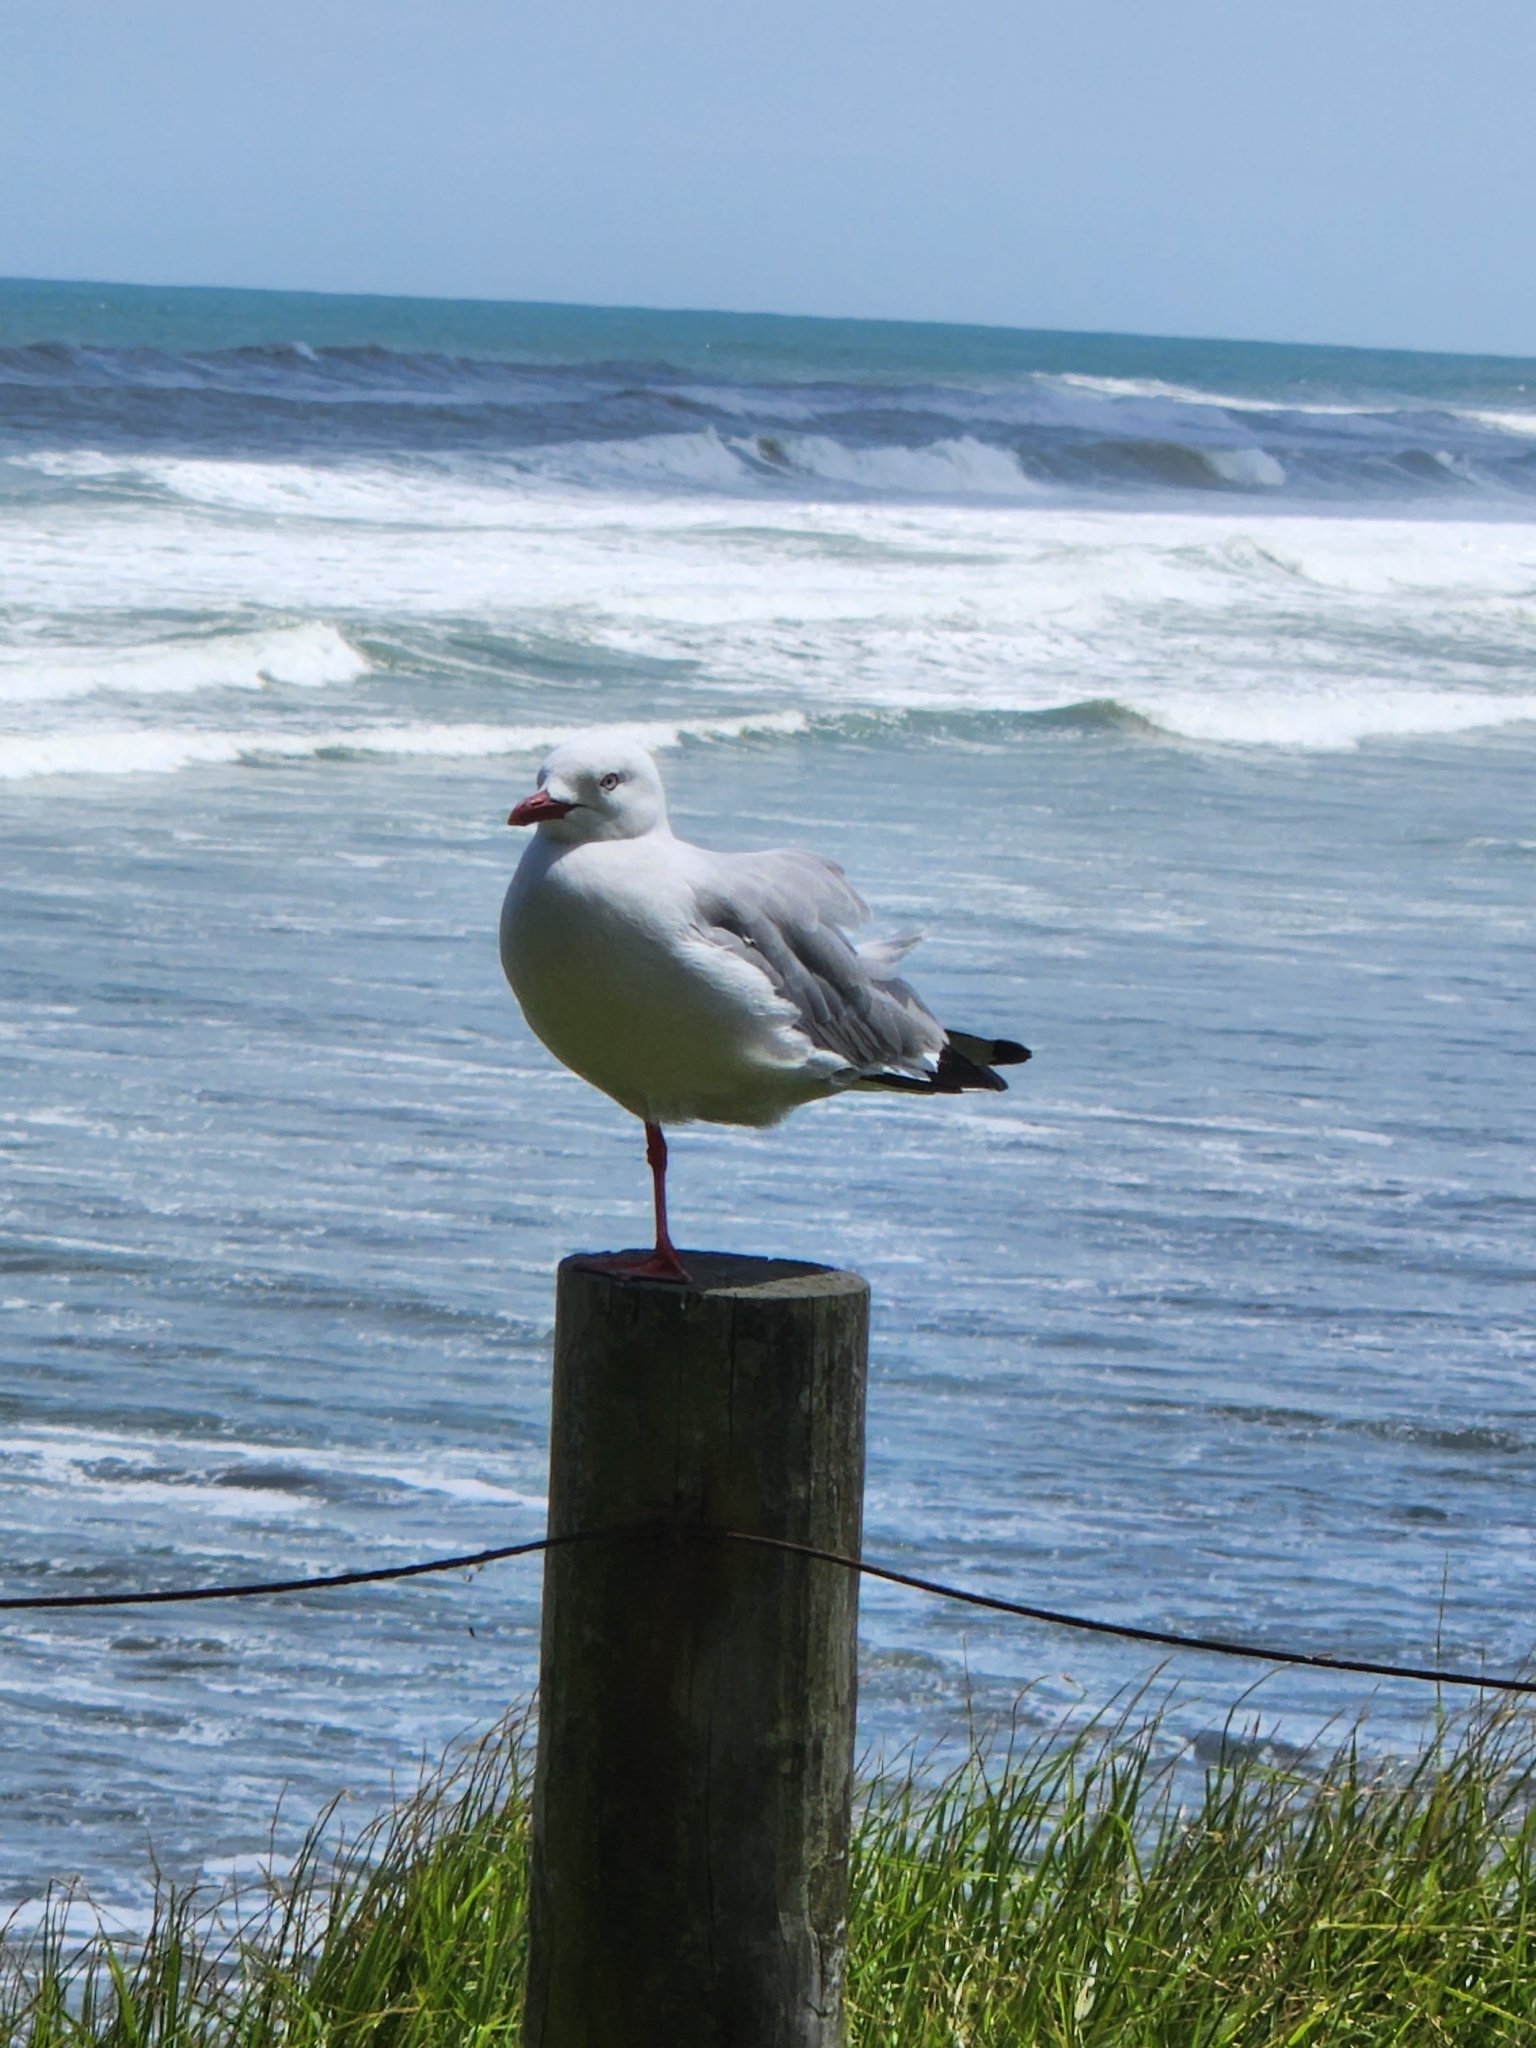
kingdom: Animalia
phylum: Chordata
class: Aves
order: Charadriiformes
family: Laridae
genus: Chroicocephalus
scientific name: Chroicocephalus novaehollandiae
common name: Silver gull
